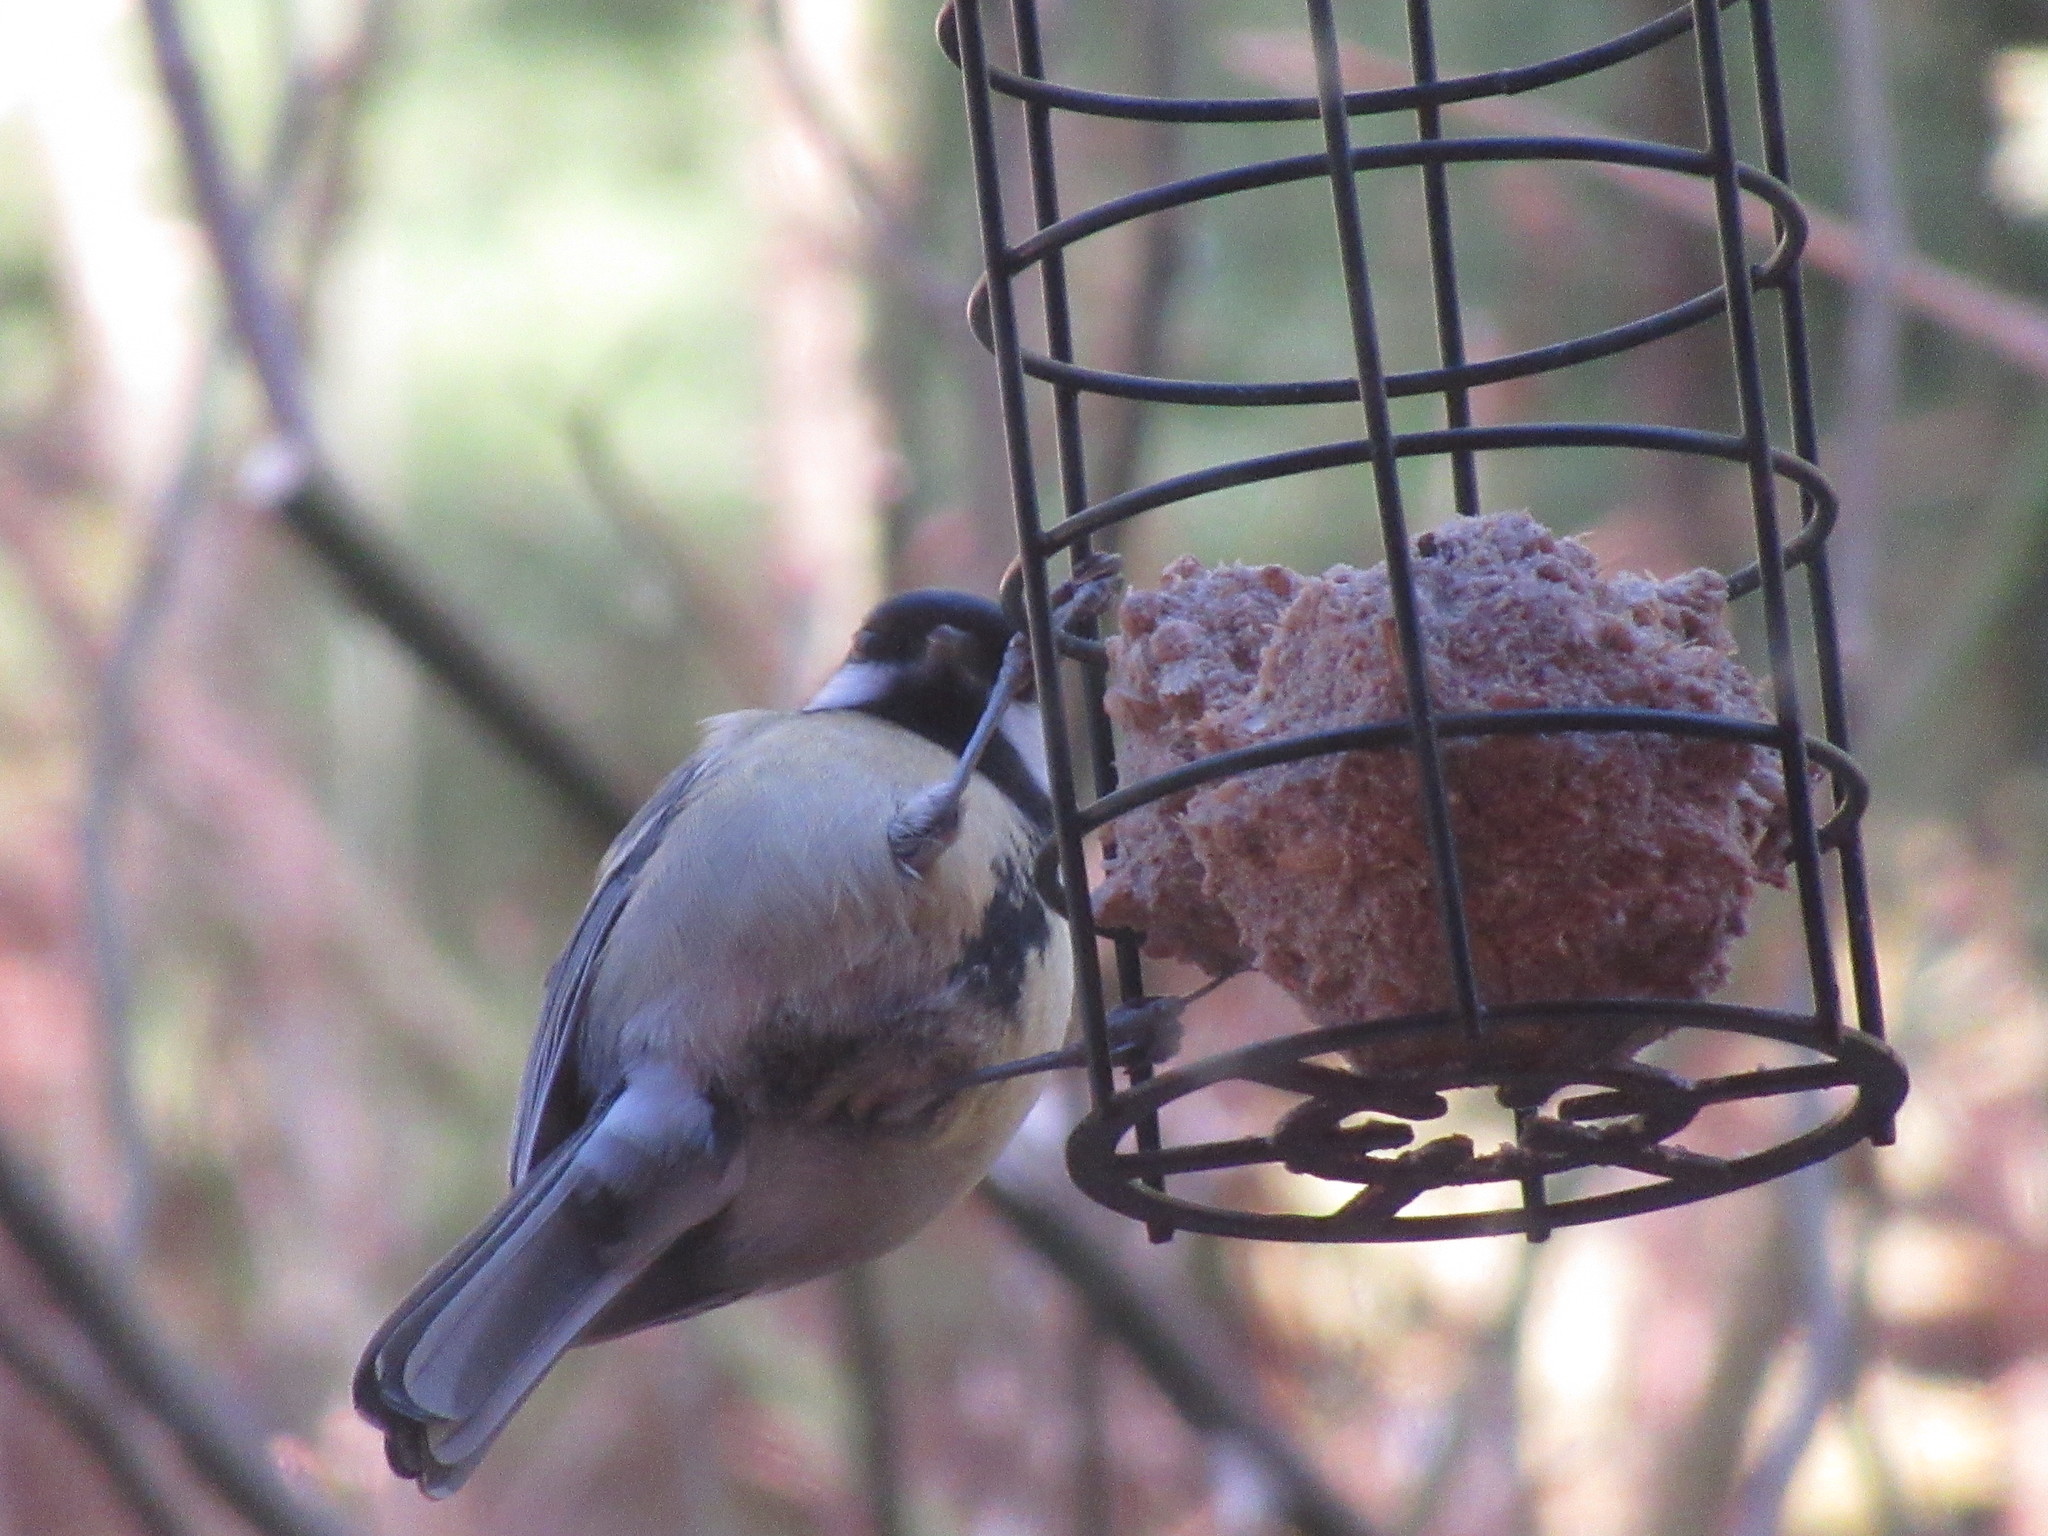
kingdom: Animalia
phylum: Chordata
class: Aves
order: Passeriformes
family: Paridae
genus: Parus
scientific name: Parus major
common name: Great tit
